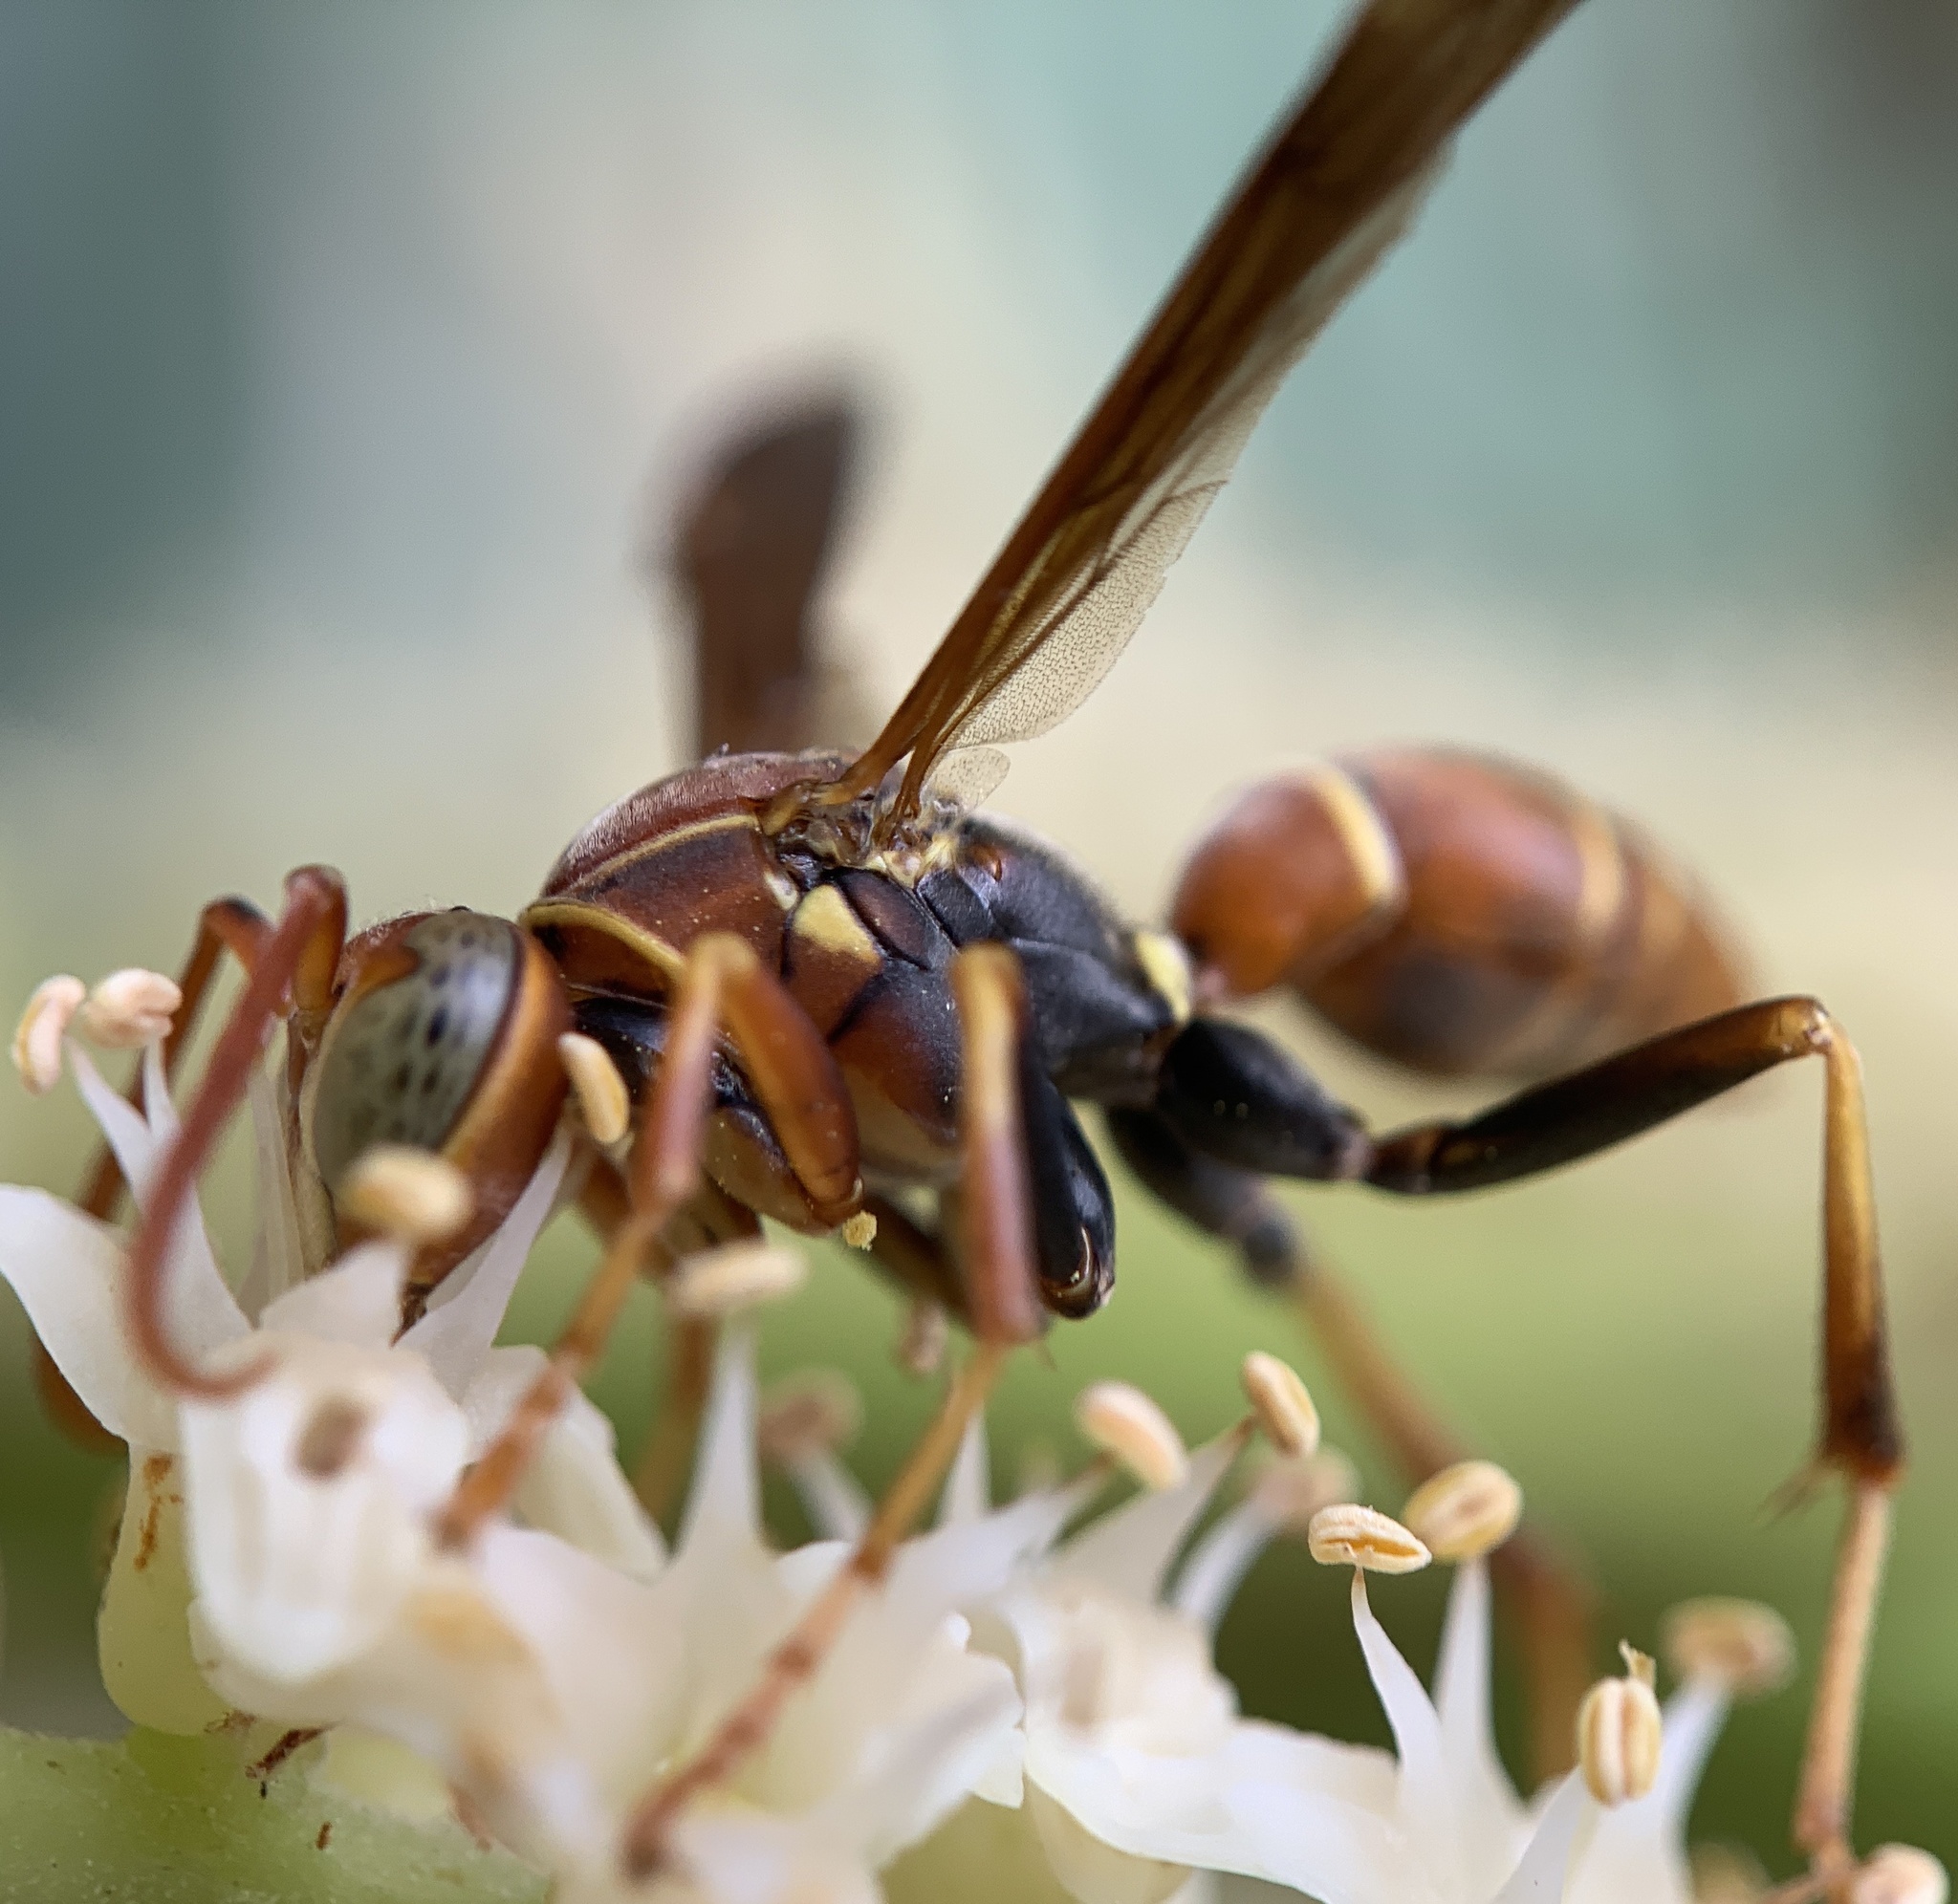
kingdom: Animalia
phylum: Arthropoda
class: Insecta
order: Hymenoptera
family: Eumenidae
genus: Polistes
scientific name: Polistes dorsalis
